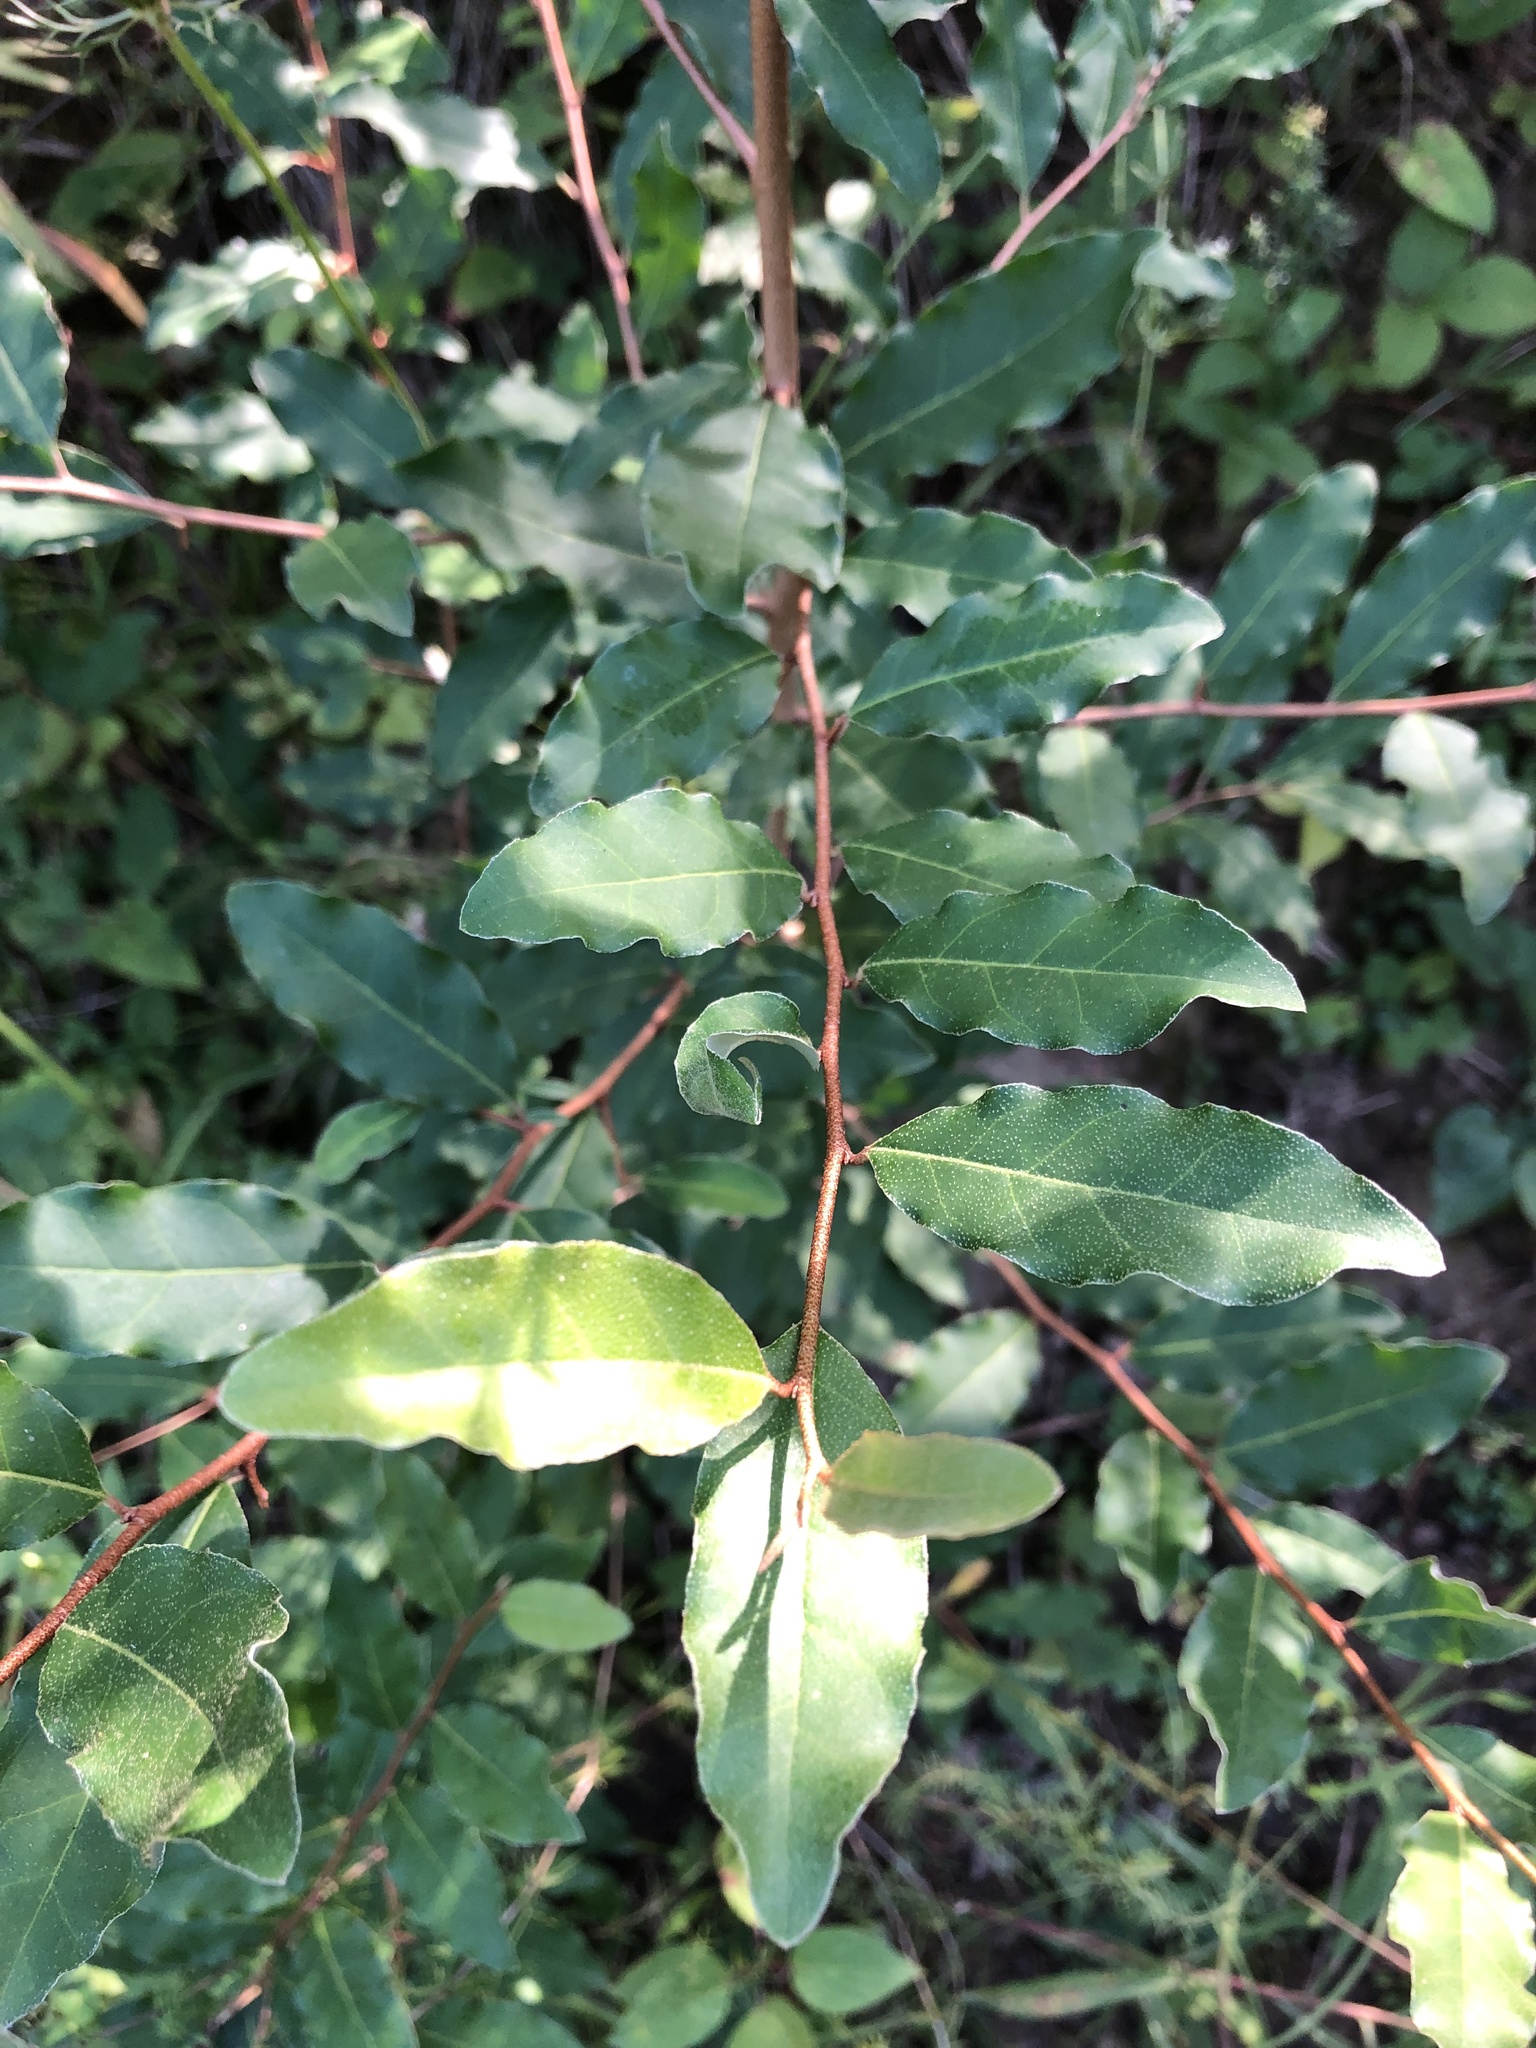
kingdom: Plantae
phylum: Tracheophyta
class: Magnoliopsida
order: Rosales
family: Elaeagnaceae
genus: Elaeagnus
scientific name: Elaeagnus umbellata
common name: Autumn olive
